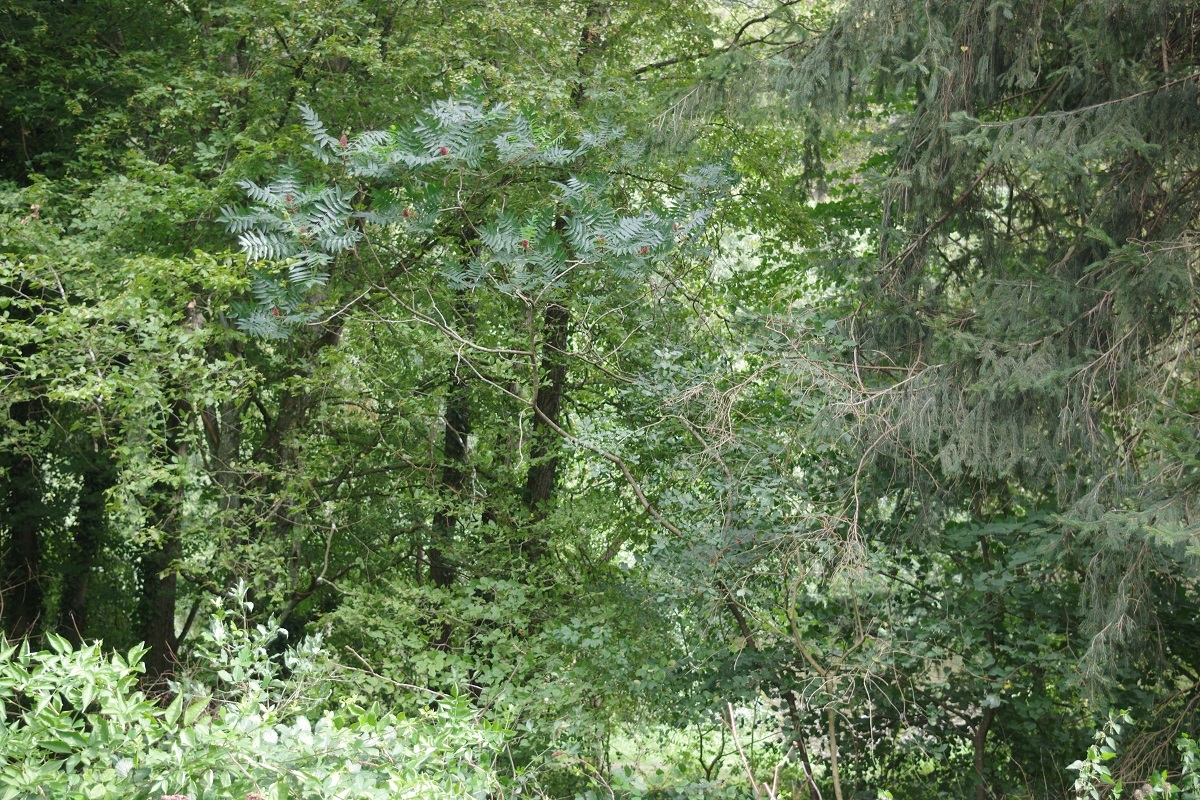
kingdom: Plantae
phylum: Tracheophyta
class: Magnoliopsida
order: Sapindales
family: Anacardiaceae
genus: Rhus
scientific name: Rhus typhina
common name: Staghorn sumac
